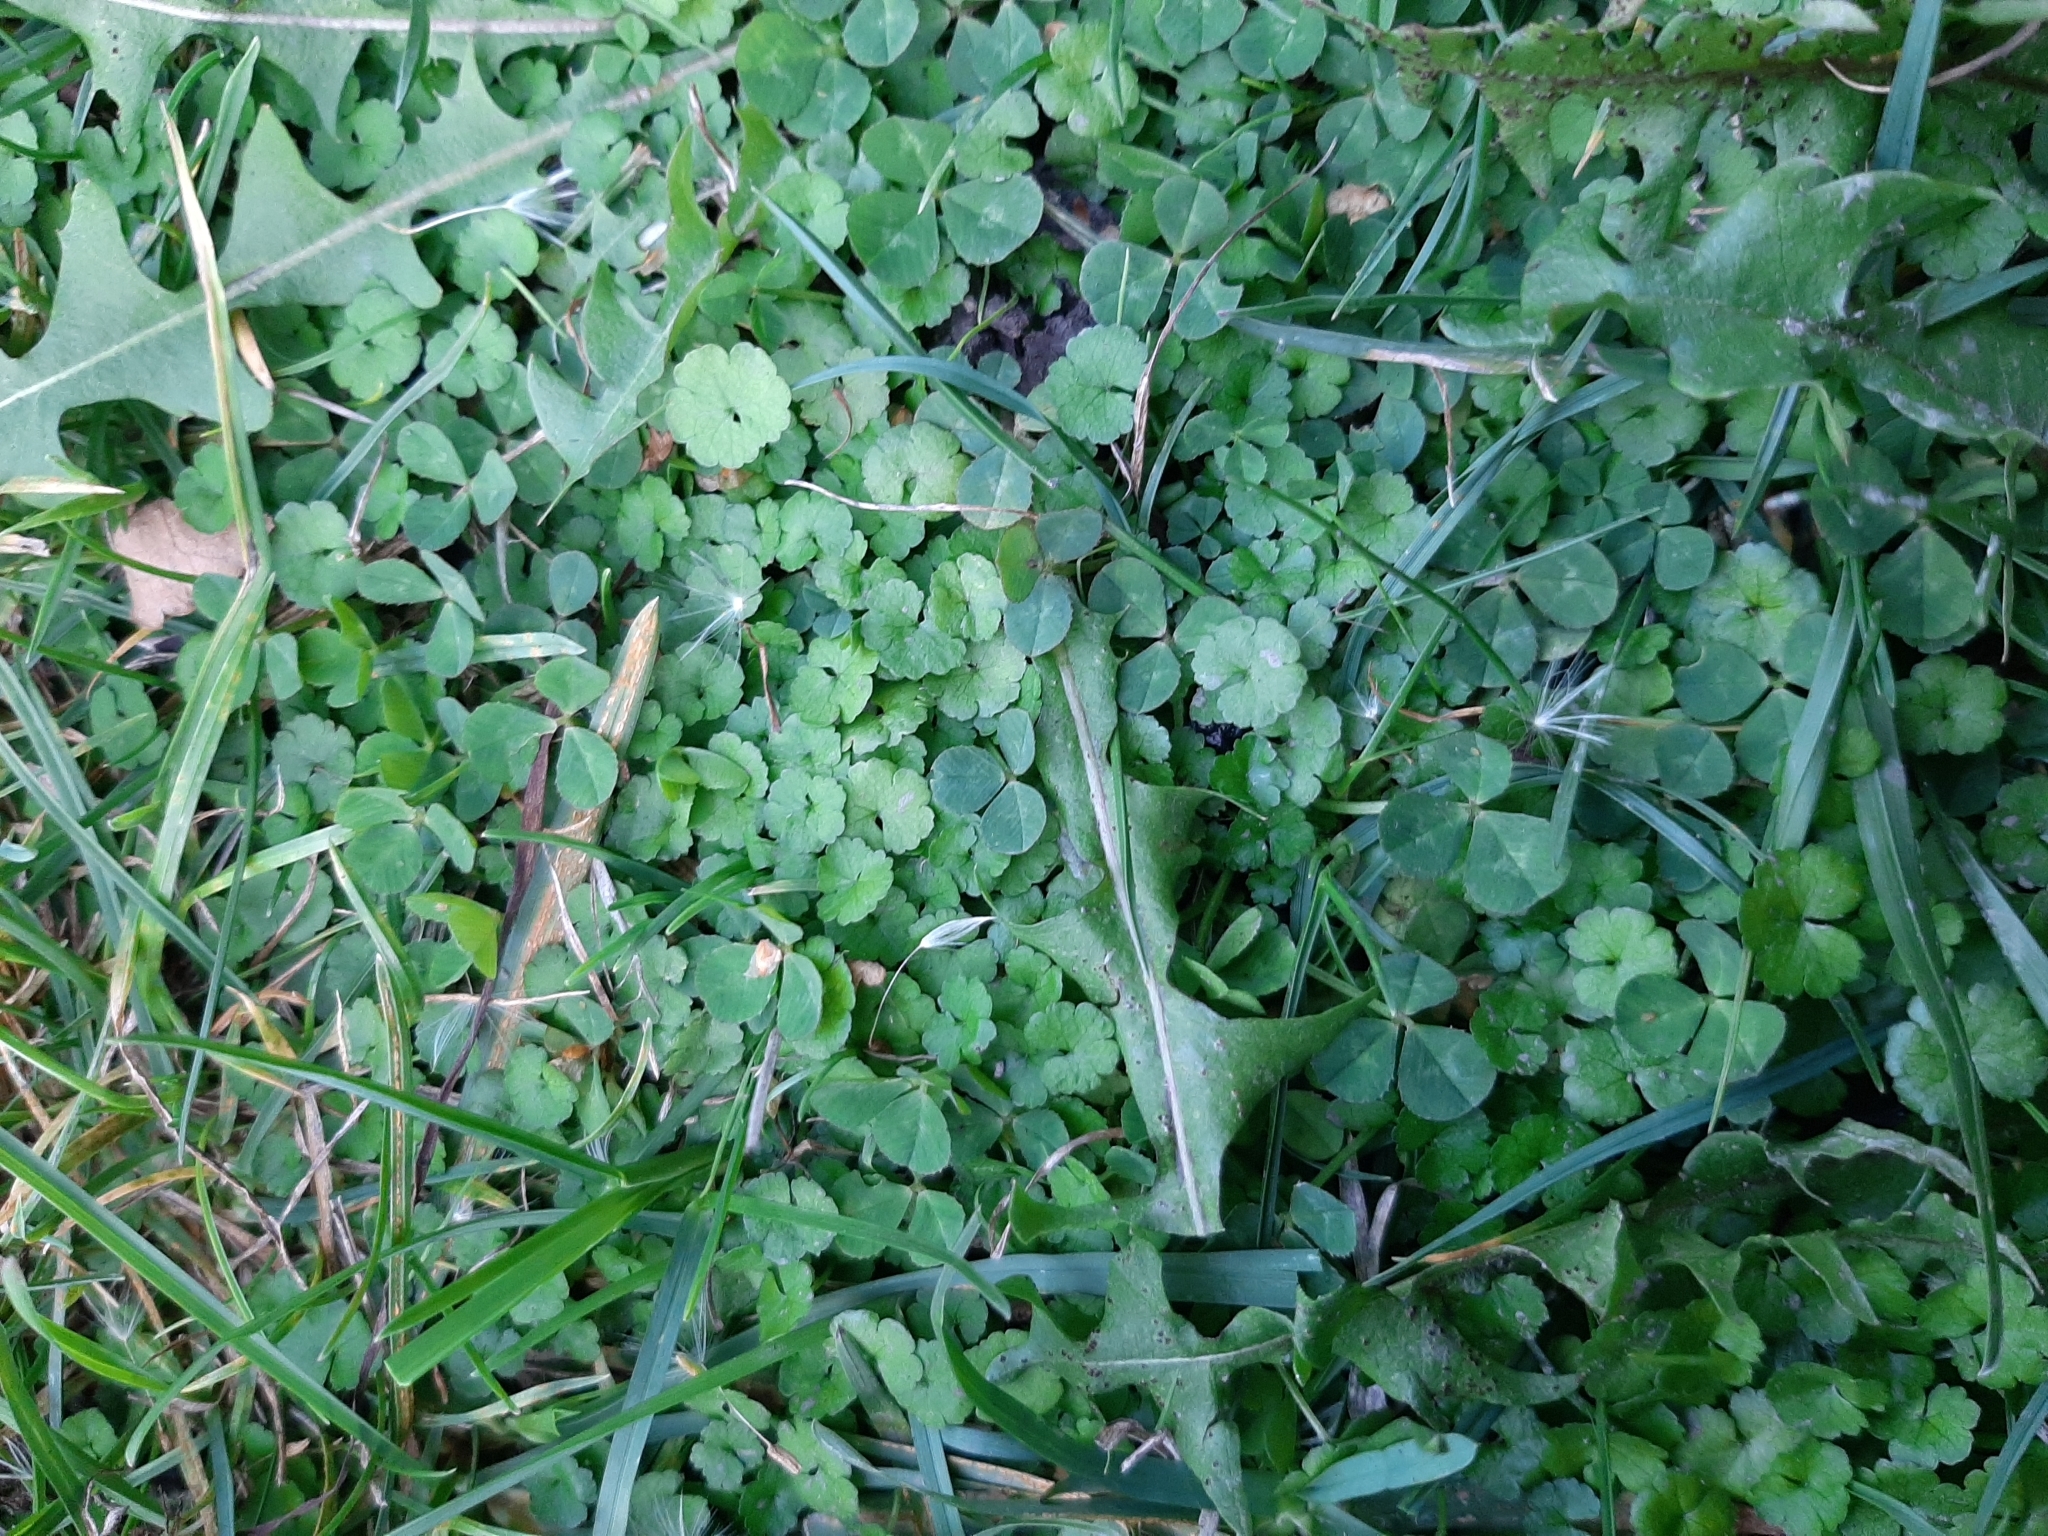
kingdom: Plantae
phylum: Tracheophyta
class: Magnoliopsida
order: Apiales
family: Araliaceae
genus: Hydrocotyle
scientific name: Hydrocotyle heteromeria
